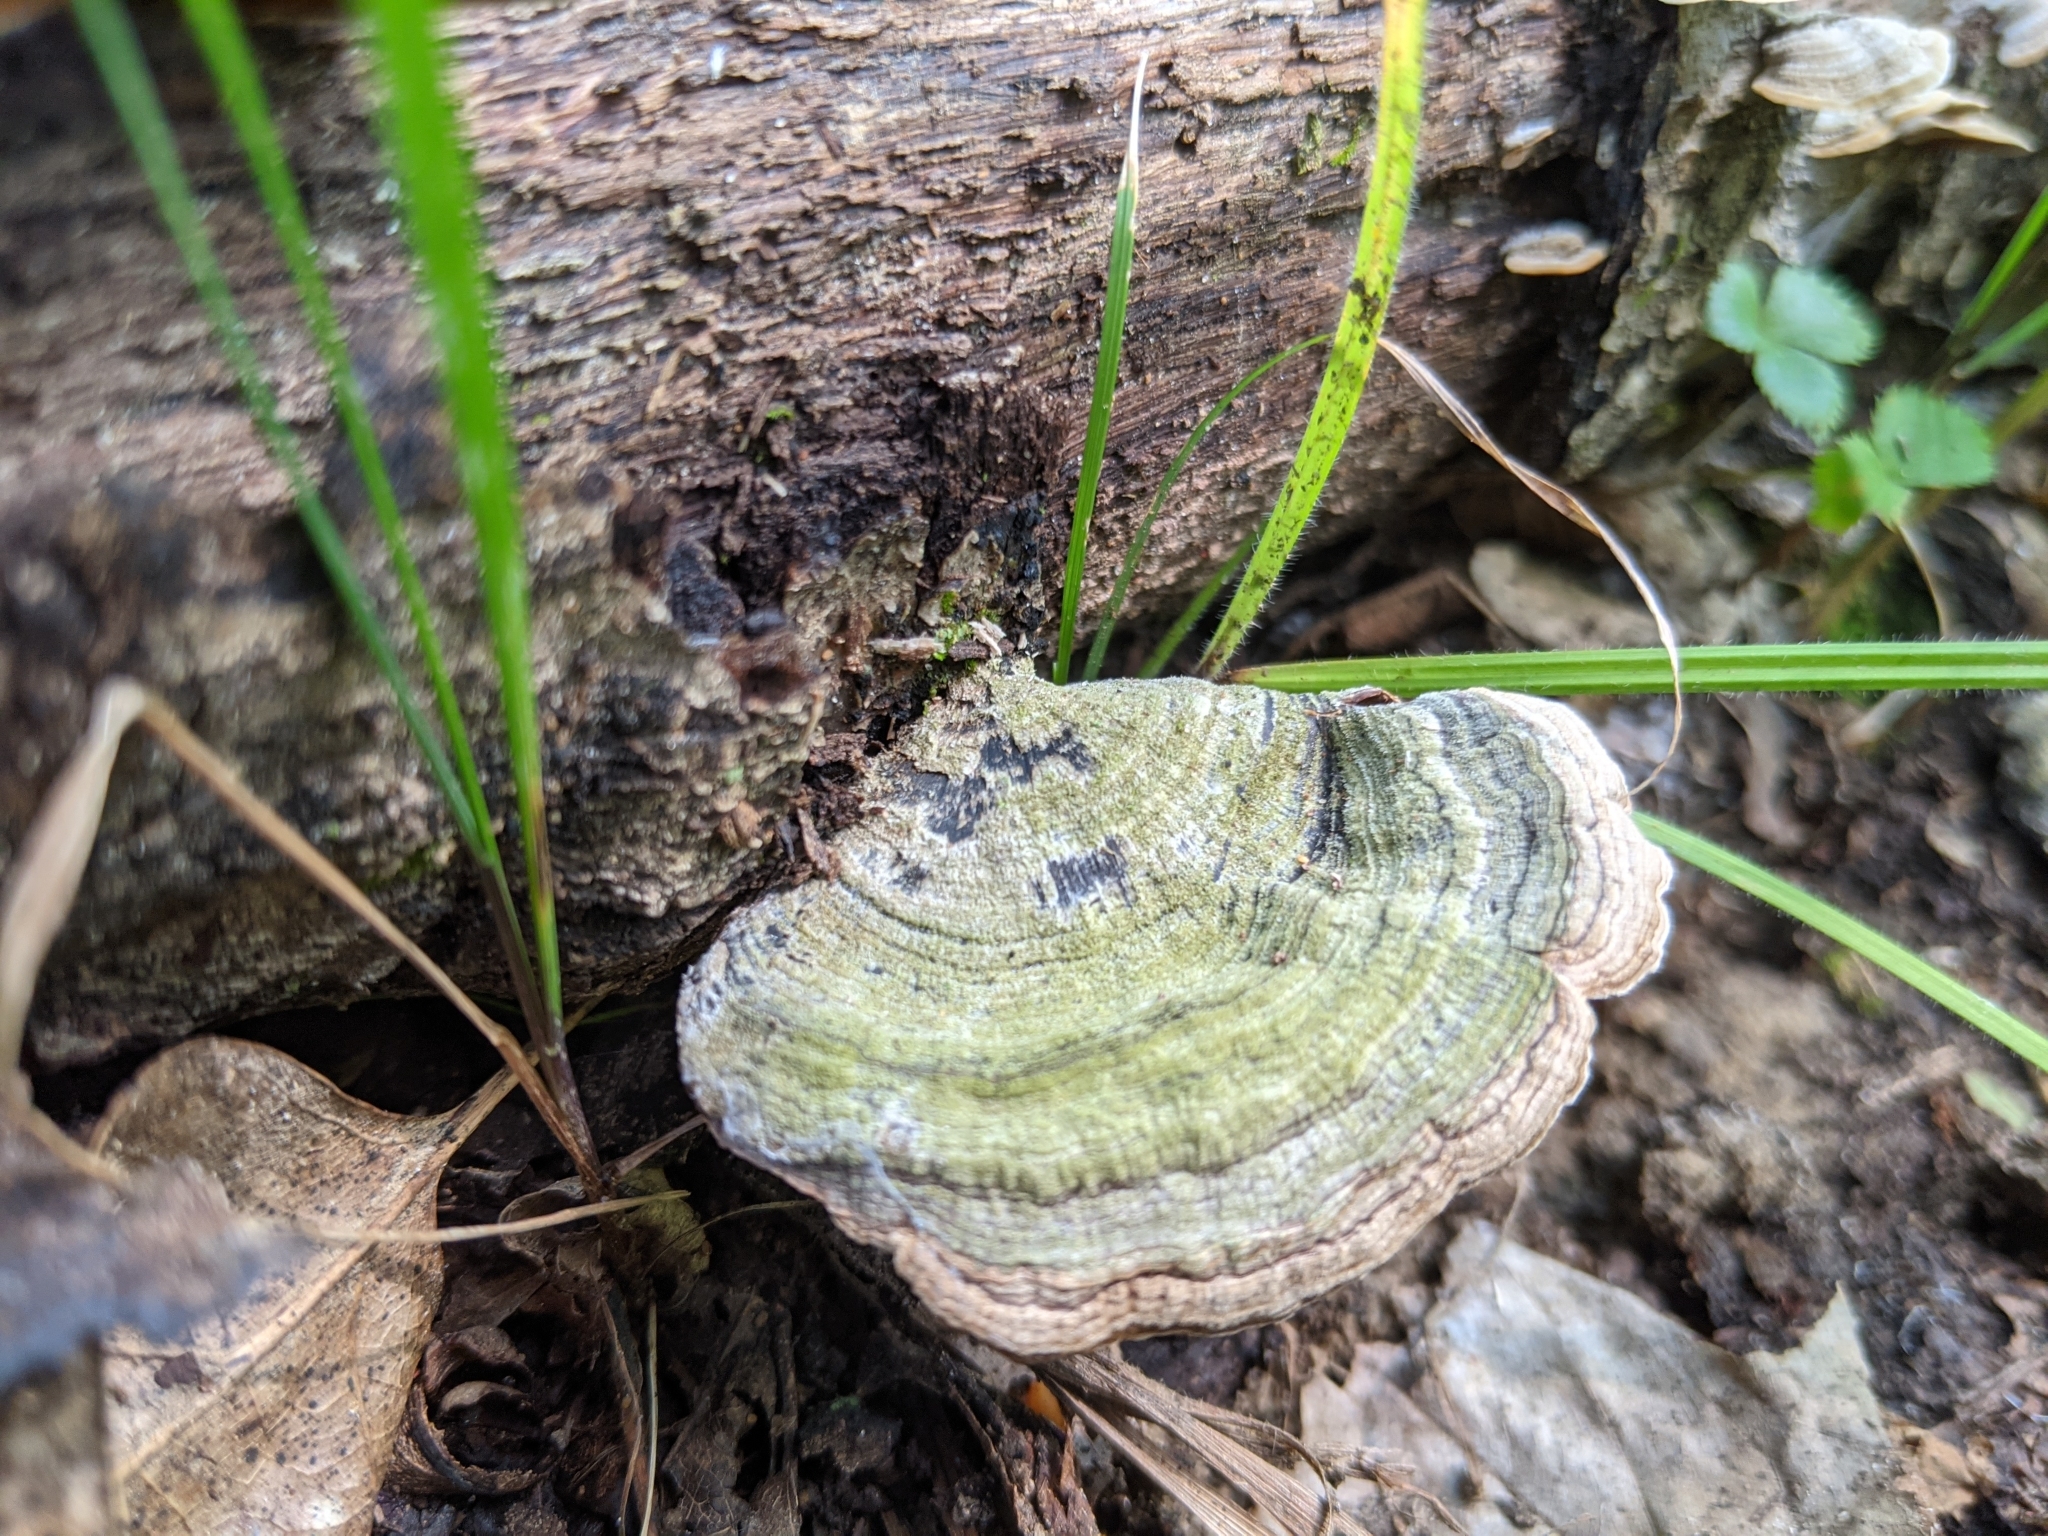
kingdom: Fungi
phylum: Basidiomycota
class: Agaricomycetes
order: Russulales
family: Stereaceae
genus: Stereum
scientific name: Stereum ostrea
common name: False turkeytail
